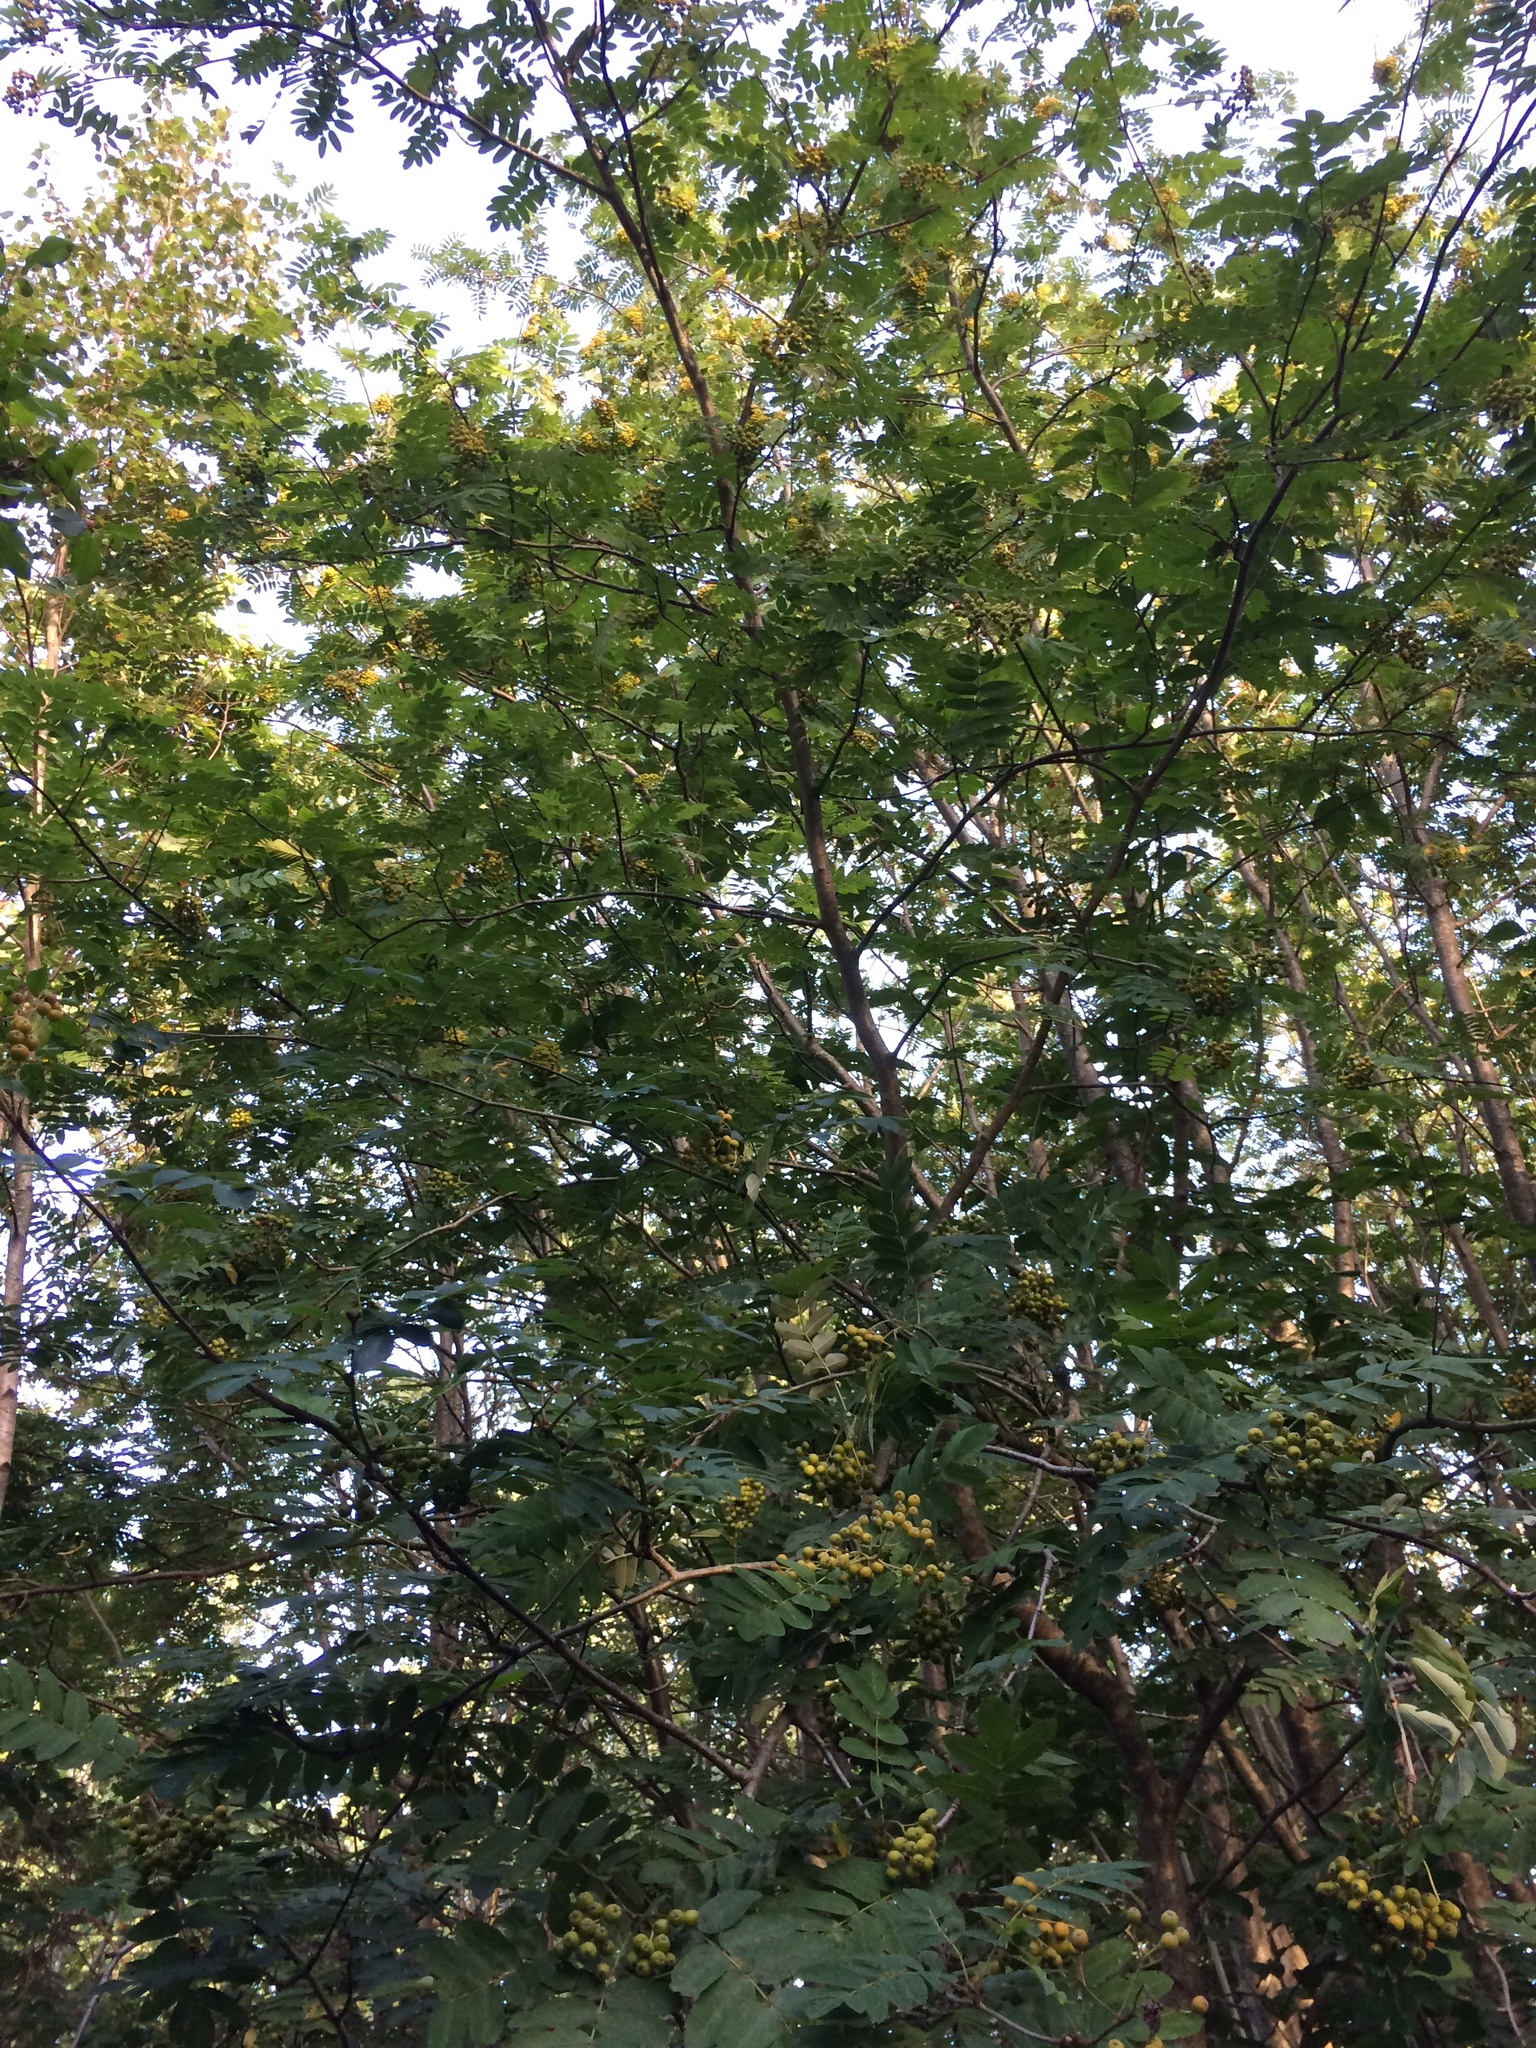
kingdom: Plantae
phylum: Tracheophyta
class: Magnoliopsida
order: Rosales
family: Rosaceae
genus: Sorbus
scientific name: Sorbus aucuparia
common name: Rowan
